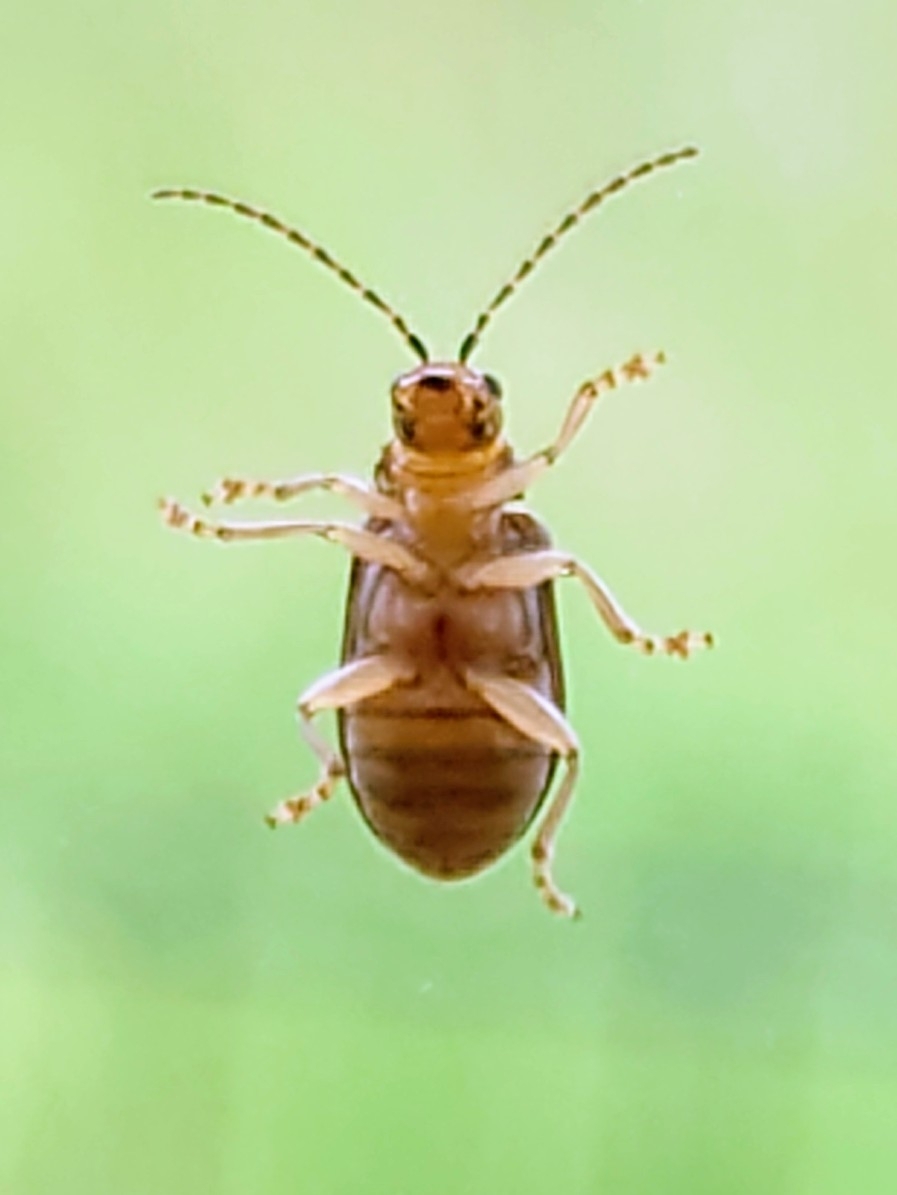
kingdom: Animalia
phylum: Arthropoda
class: Insecta
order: Coleoptera
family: Chrysomelidae
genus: Pyrrhalta
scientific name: Pyrrhalta viburni
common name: Guelder-rose leaf beetle
